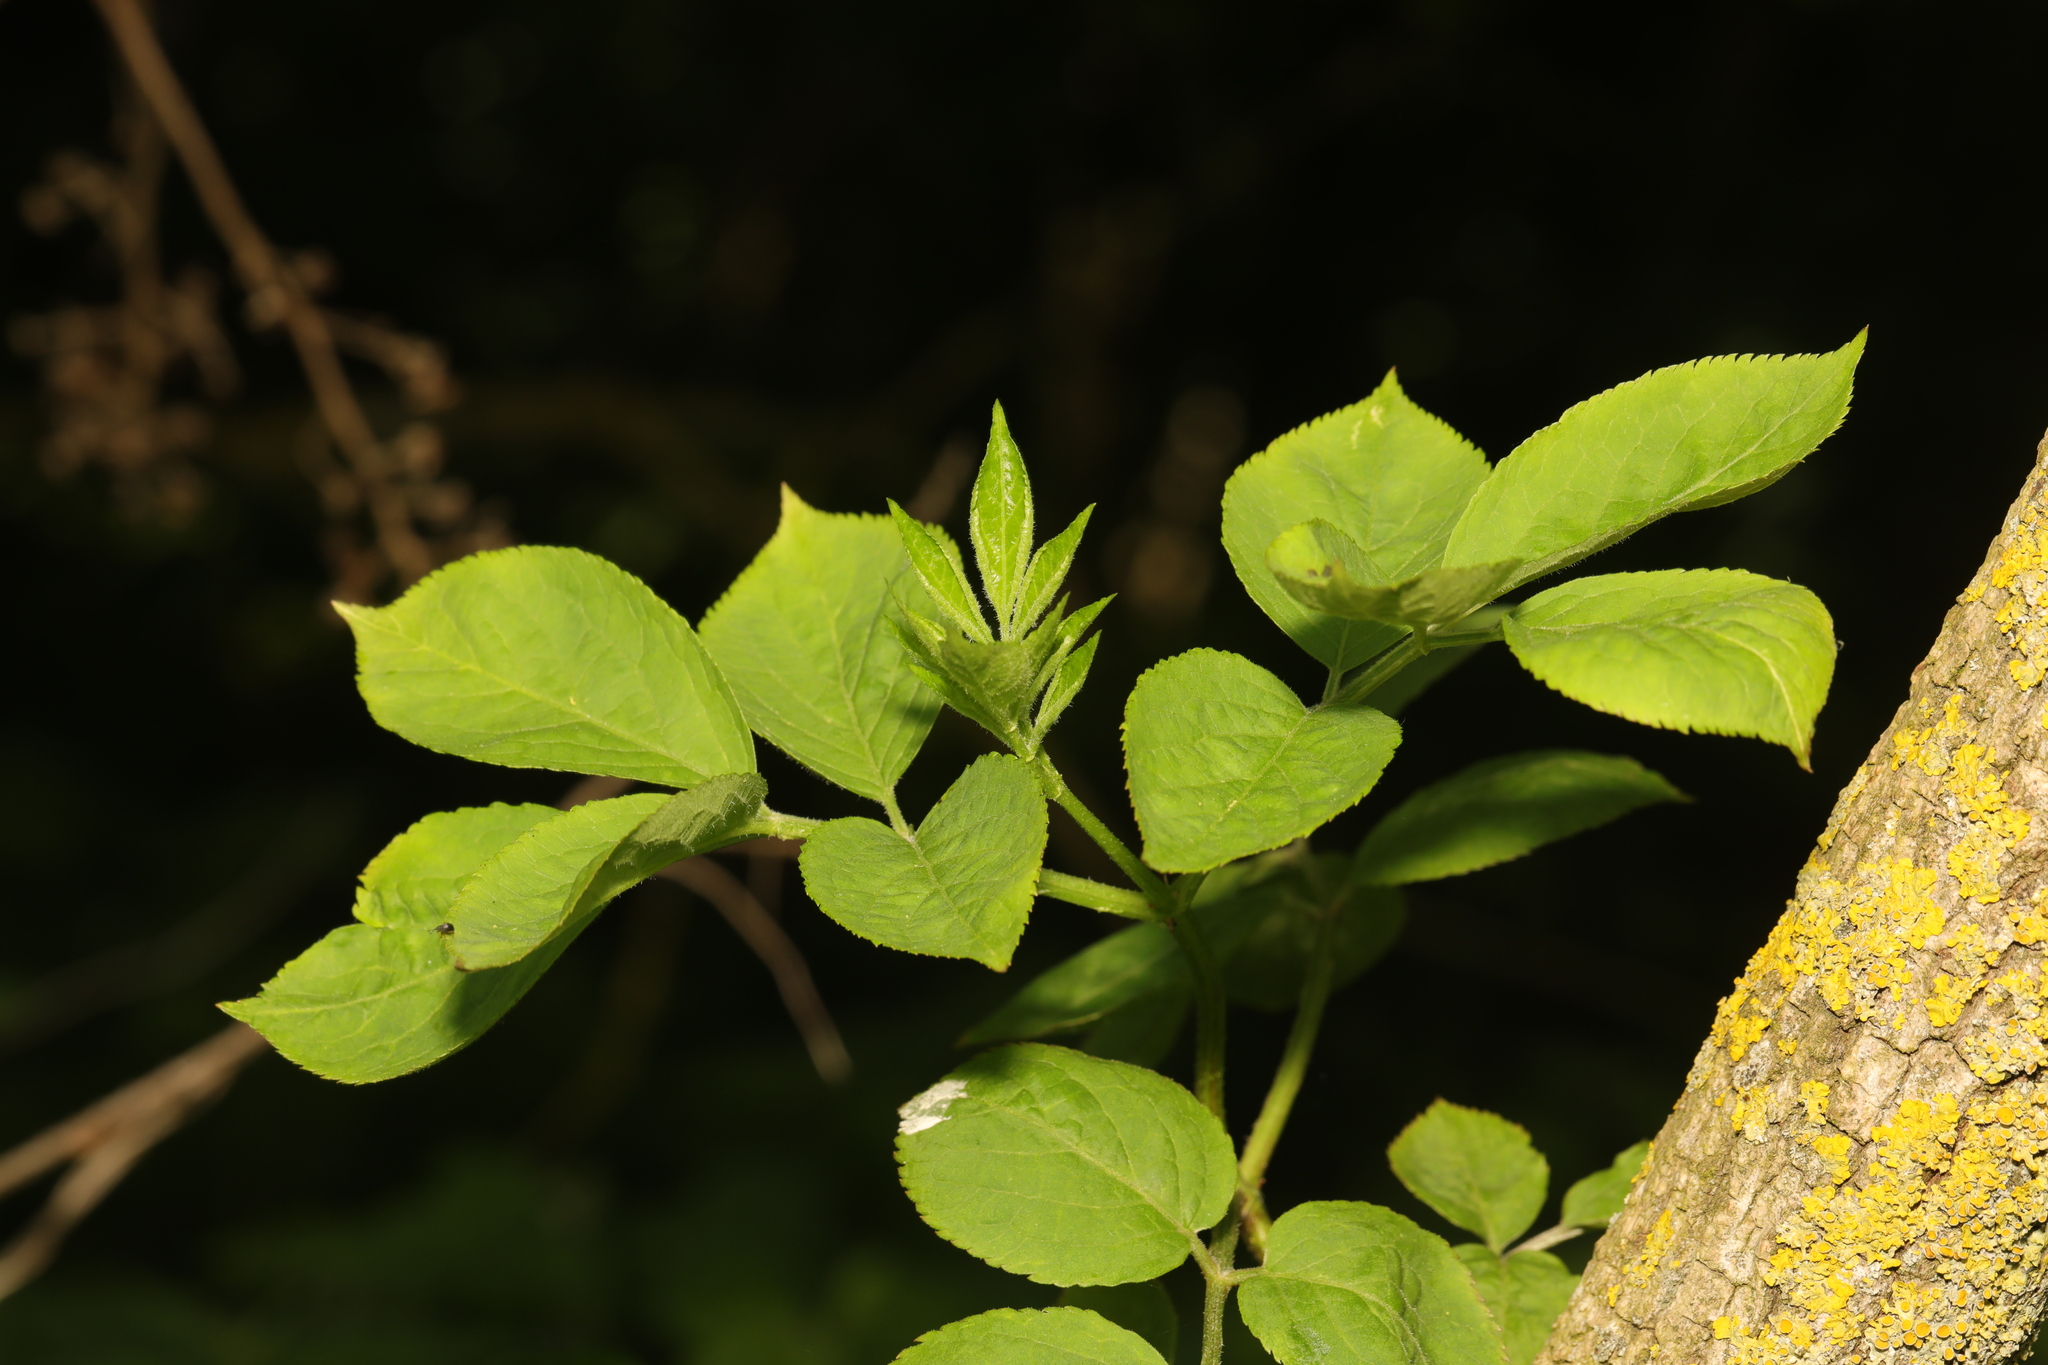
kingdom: Plantae
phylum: Tracheophyta
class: Magnoliopsida
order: Dipsacales
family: Viburnaceae
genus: Sambucus
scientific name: Sambucus nigra
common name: Elder
